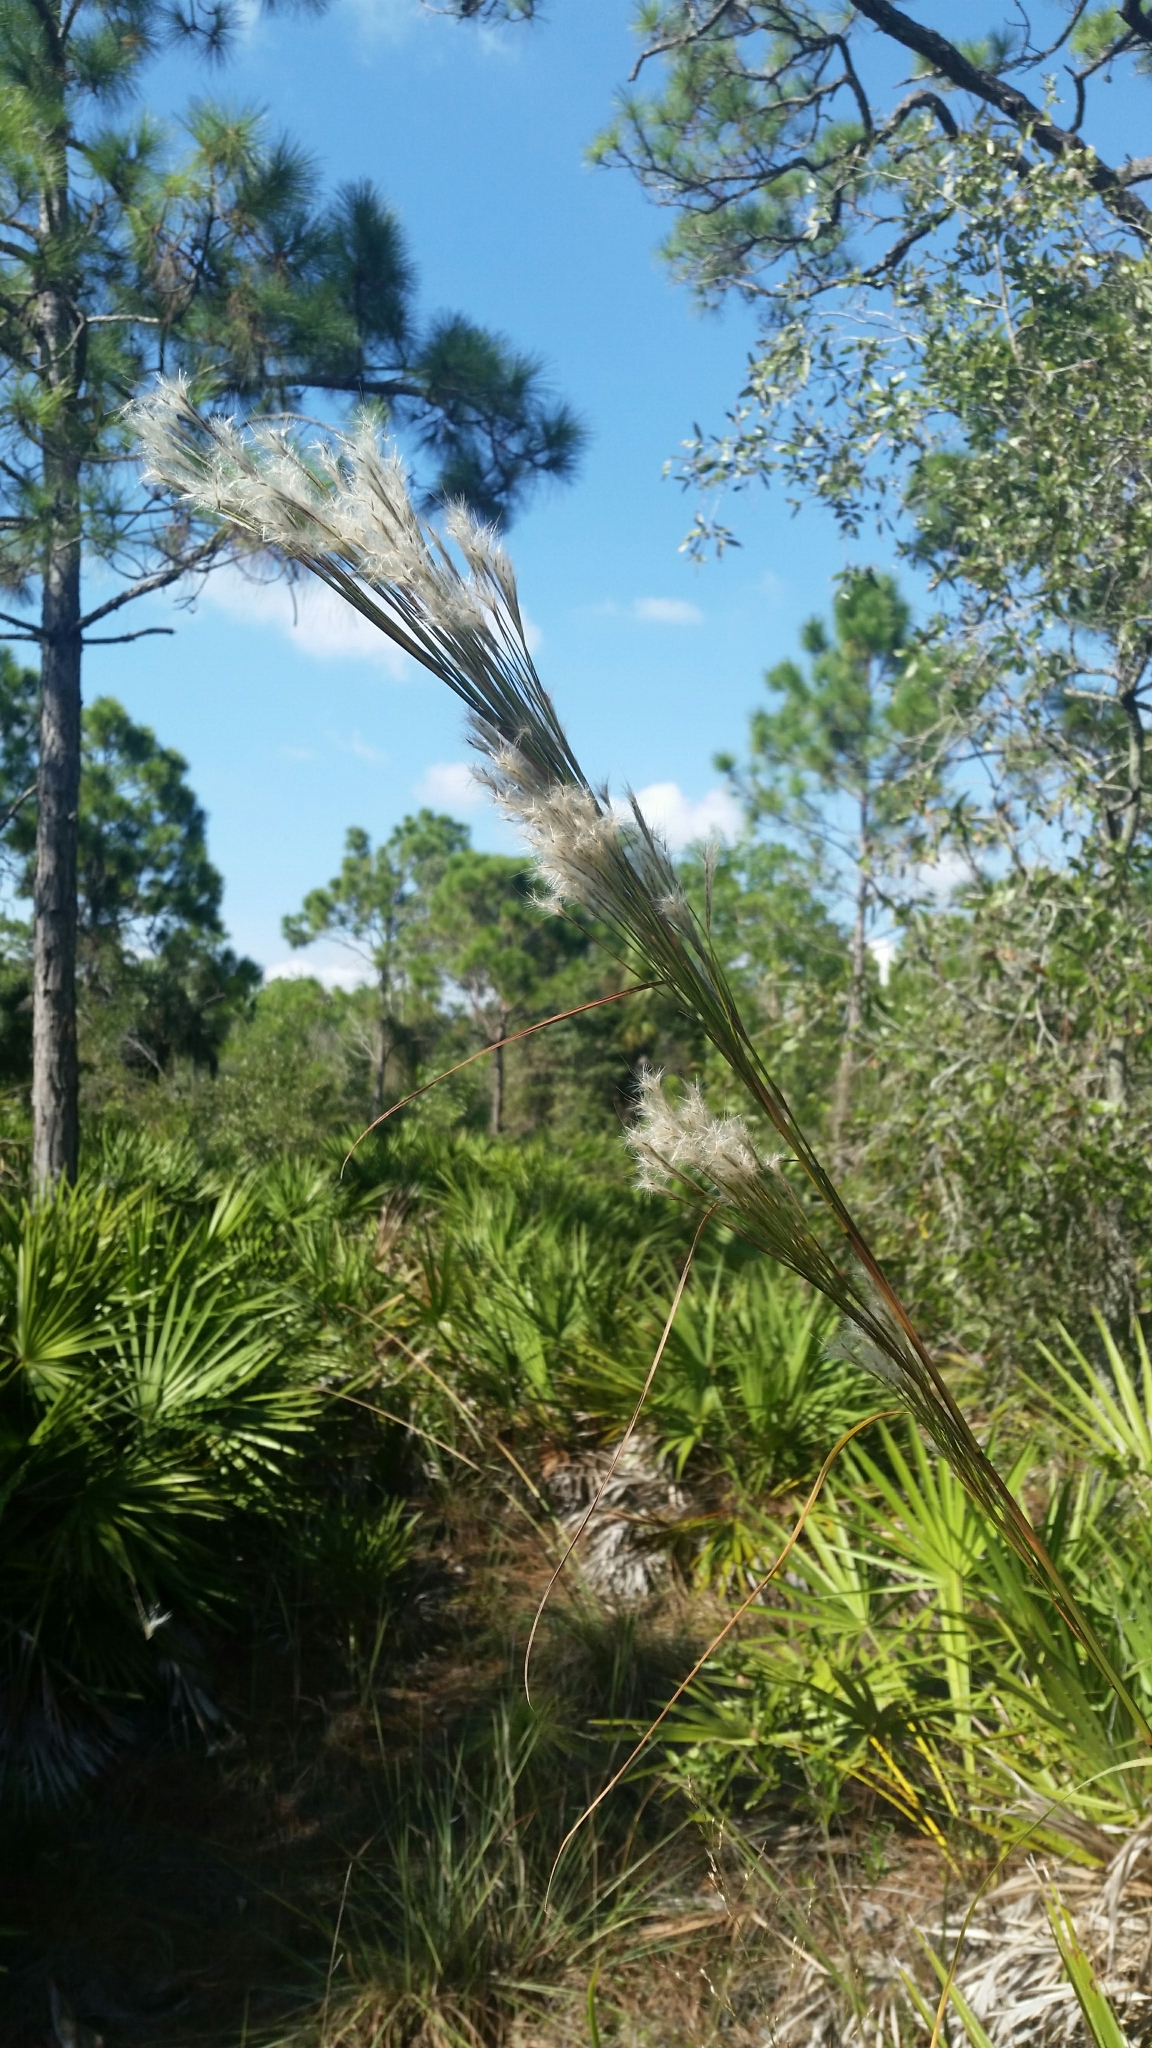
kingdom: Plantae
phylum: Tracheophyta
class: Liliopsida
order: Poales
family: Poaceae
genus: Andropogon
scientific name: Andropogon floridanus
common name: Florida bluestem
